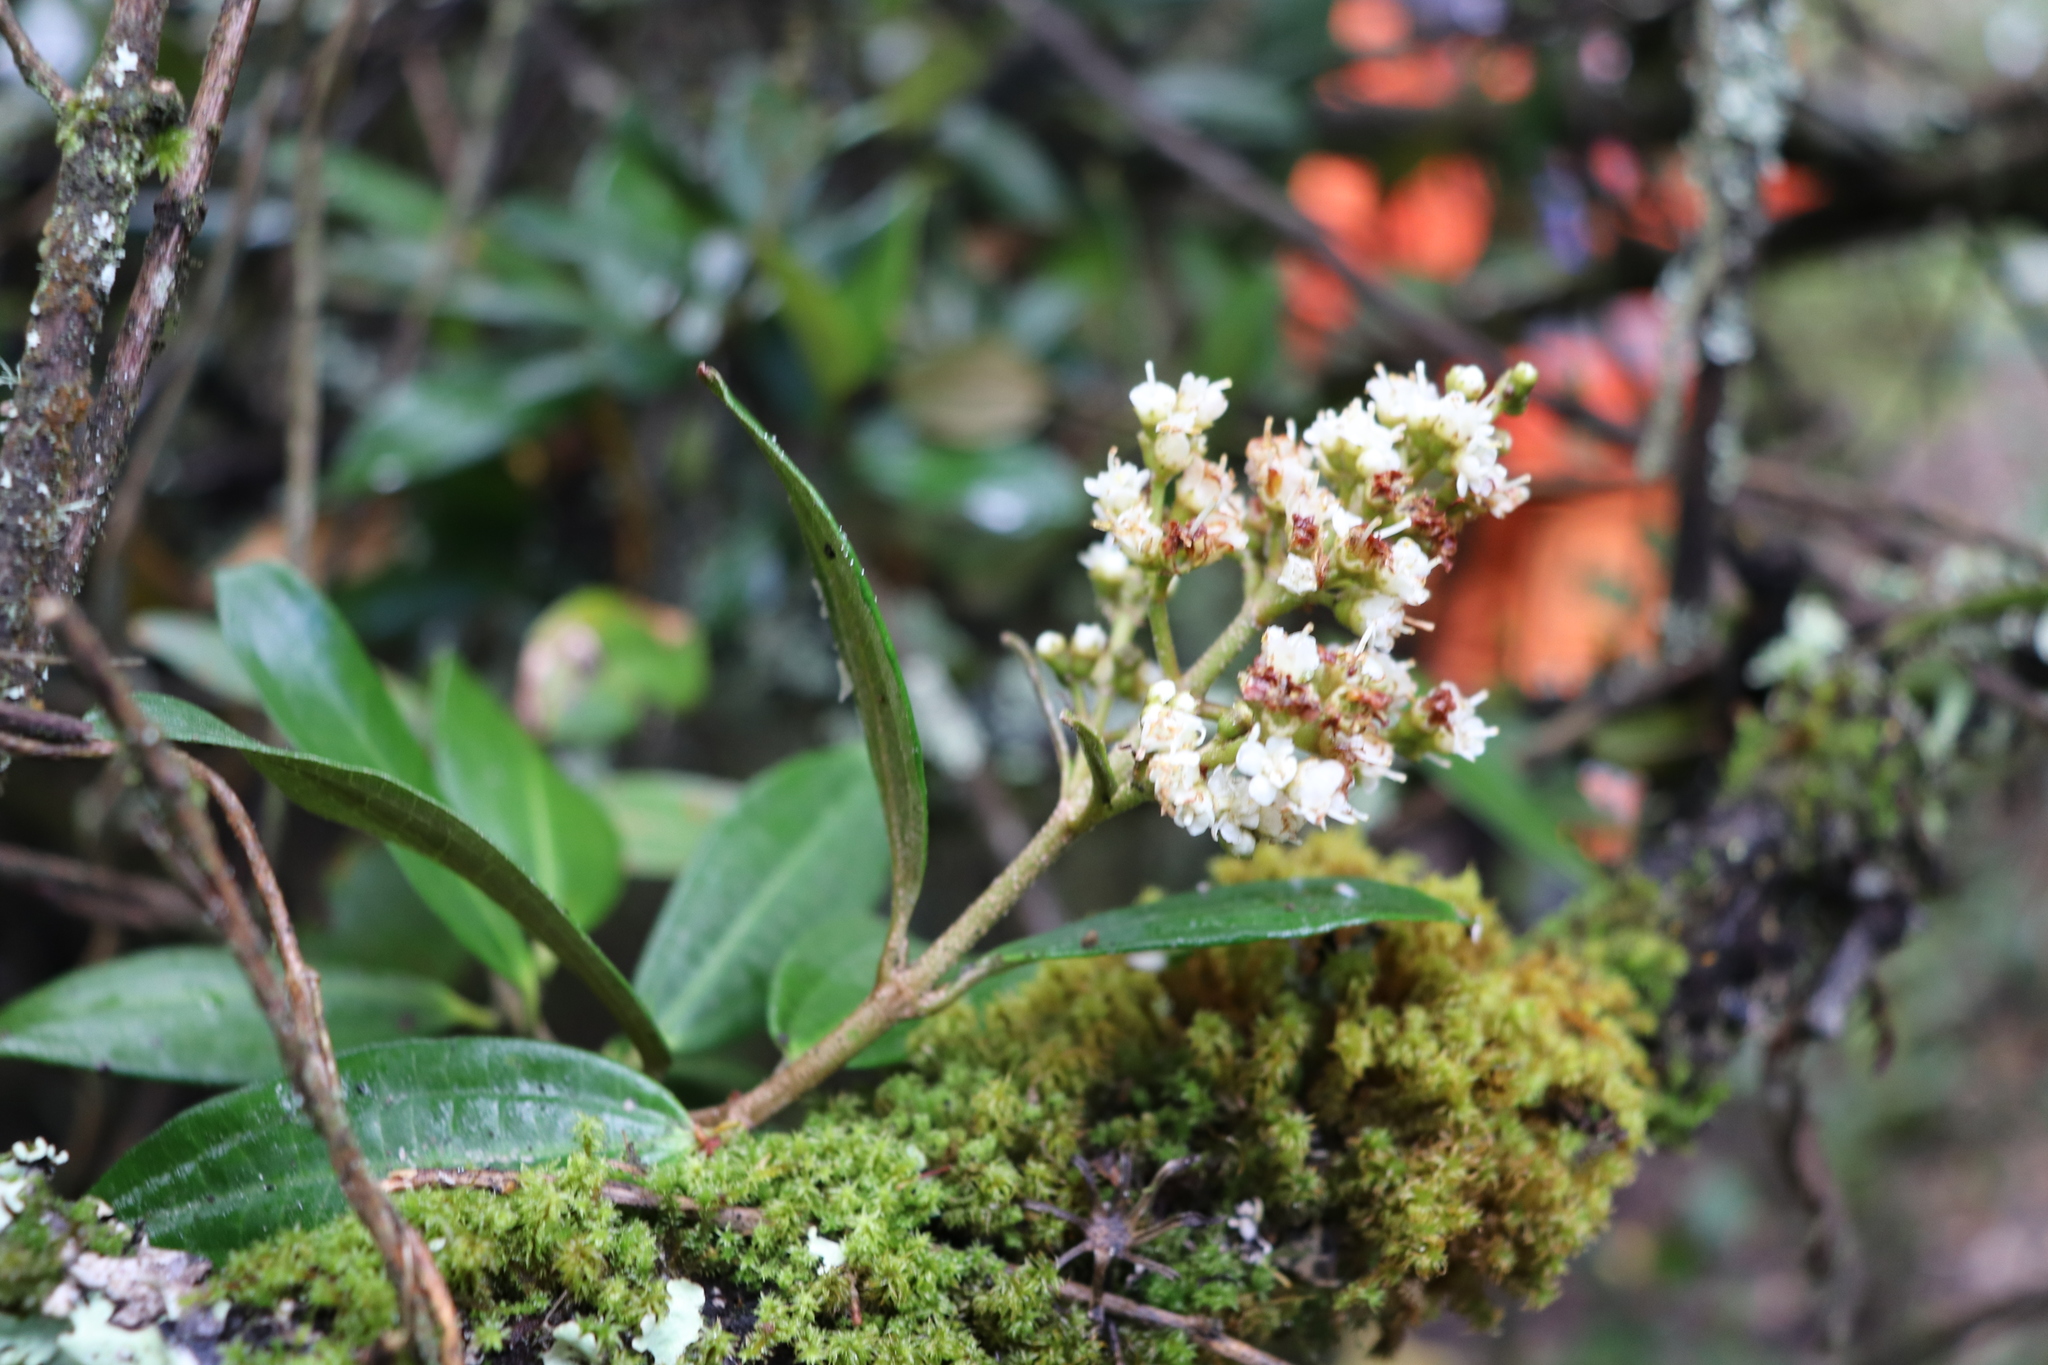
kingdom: Plantae
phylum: Tracheophyta
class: Magnoliopsida
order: Myrtales
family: Melastomataceae
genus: Miconia
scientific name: Miconia squamulosa
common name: Squamulose maya
